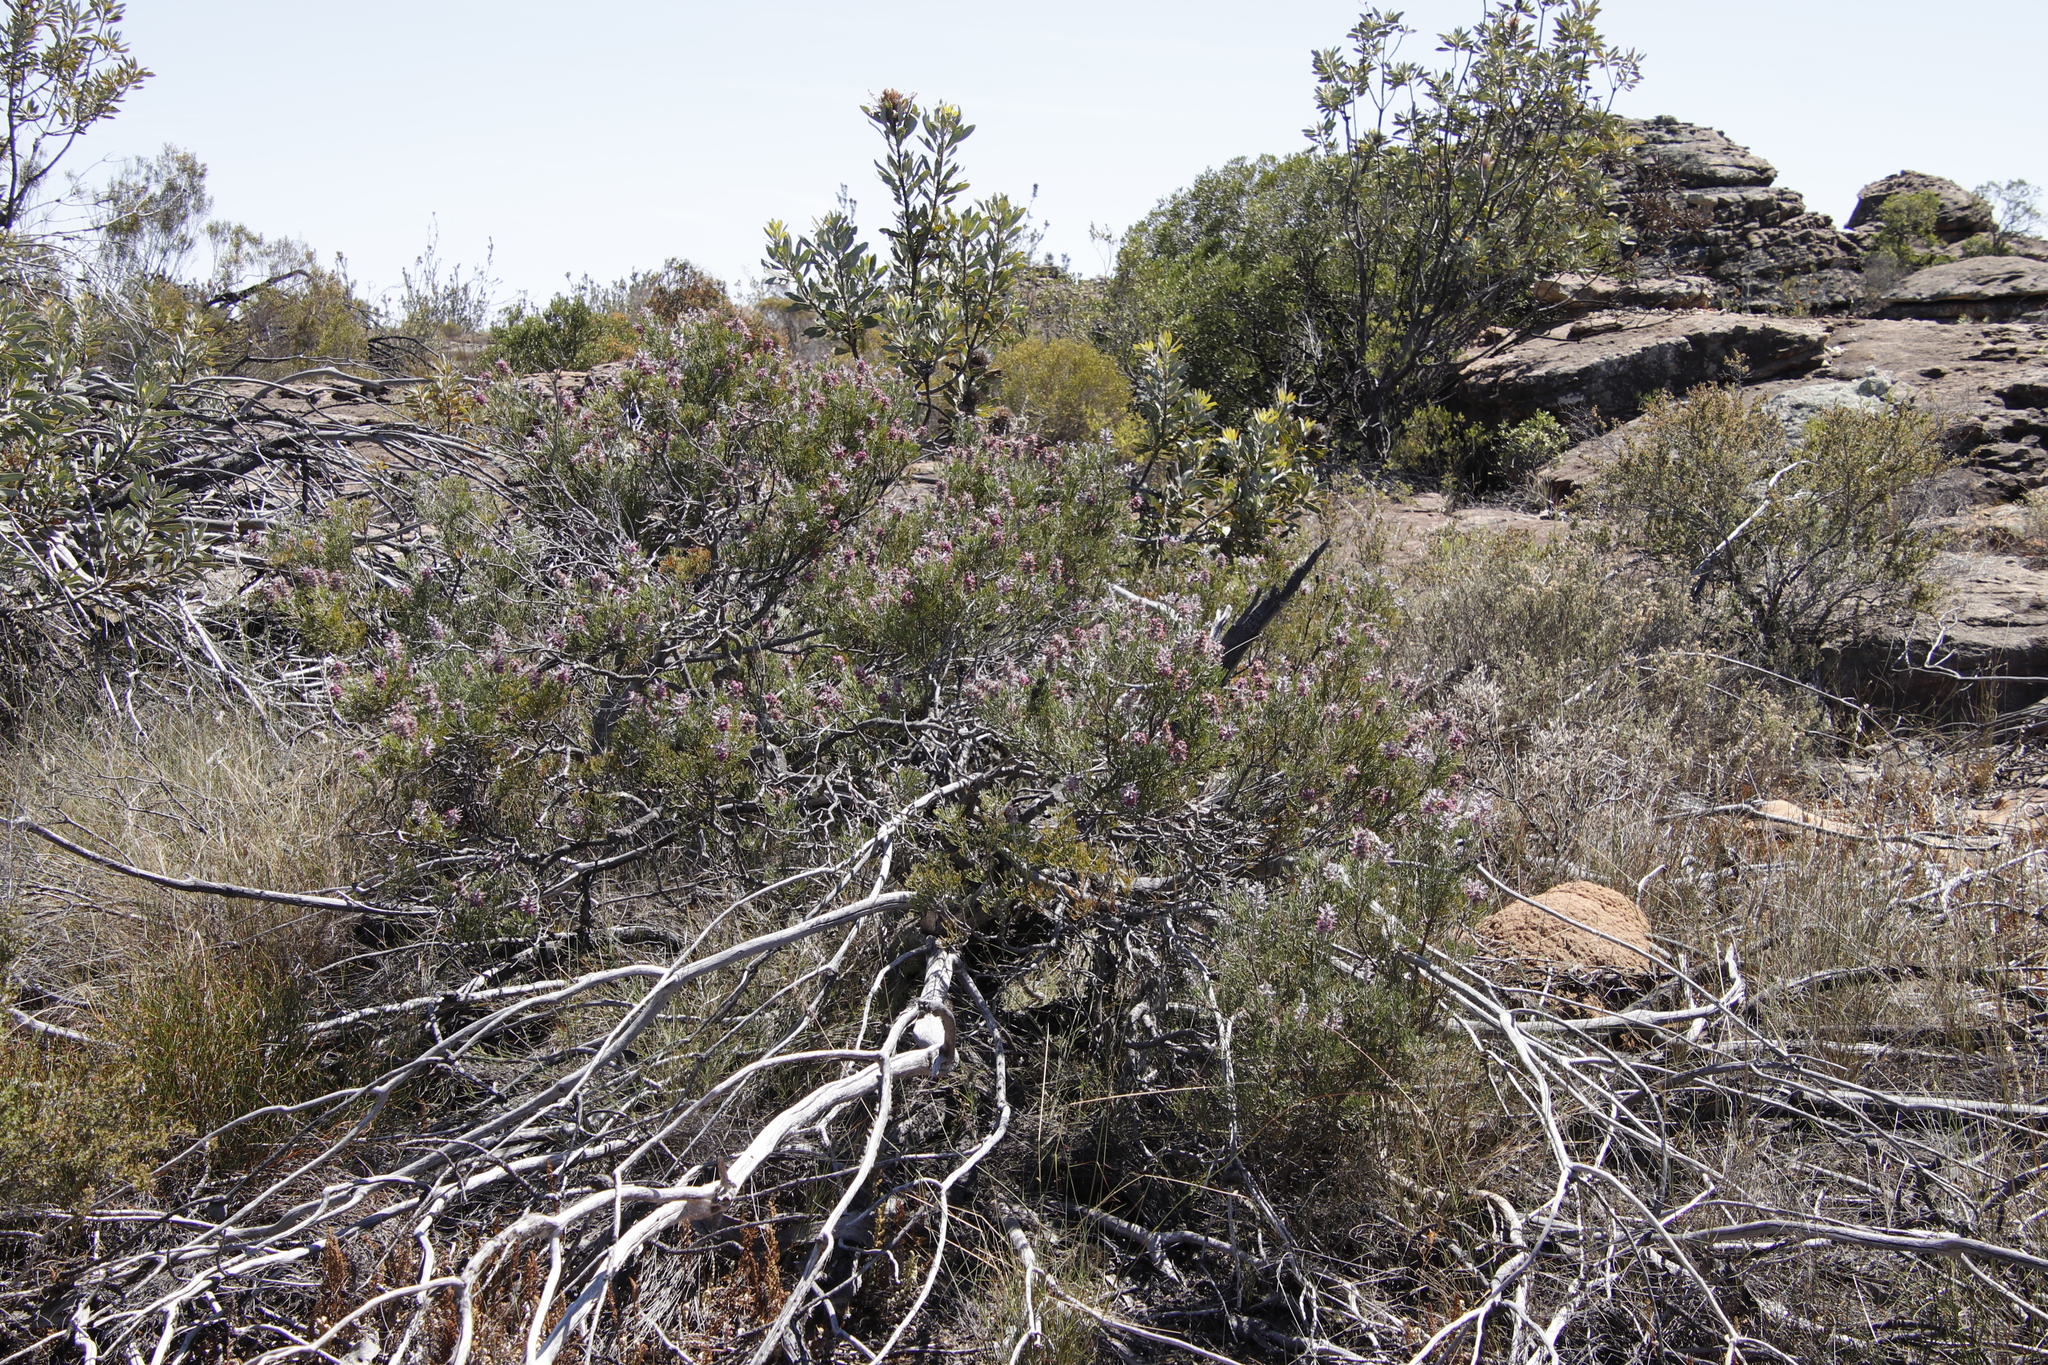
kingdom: Plantae
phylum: Tracheophyta
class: Magnoliopsida
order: Proteales
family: Proteaceae
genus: Paranomus
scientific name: Paranomus bracteolaris
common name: Bokkeveld tree sceptre
